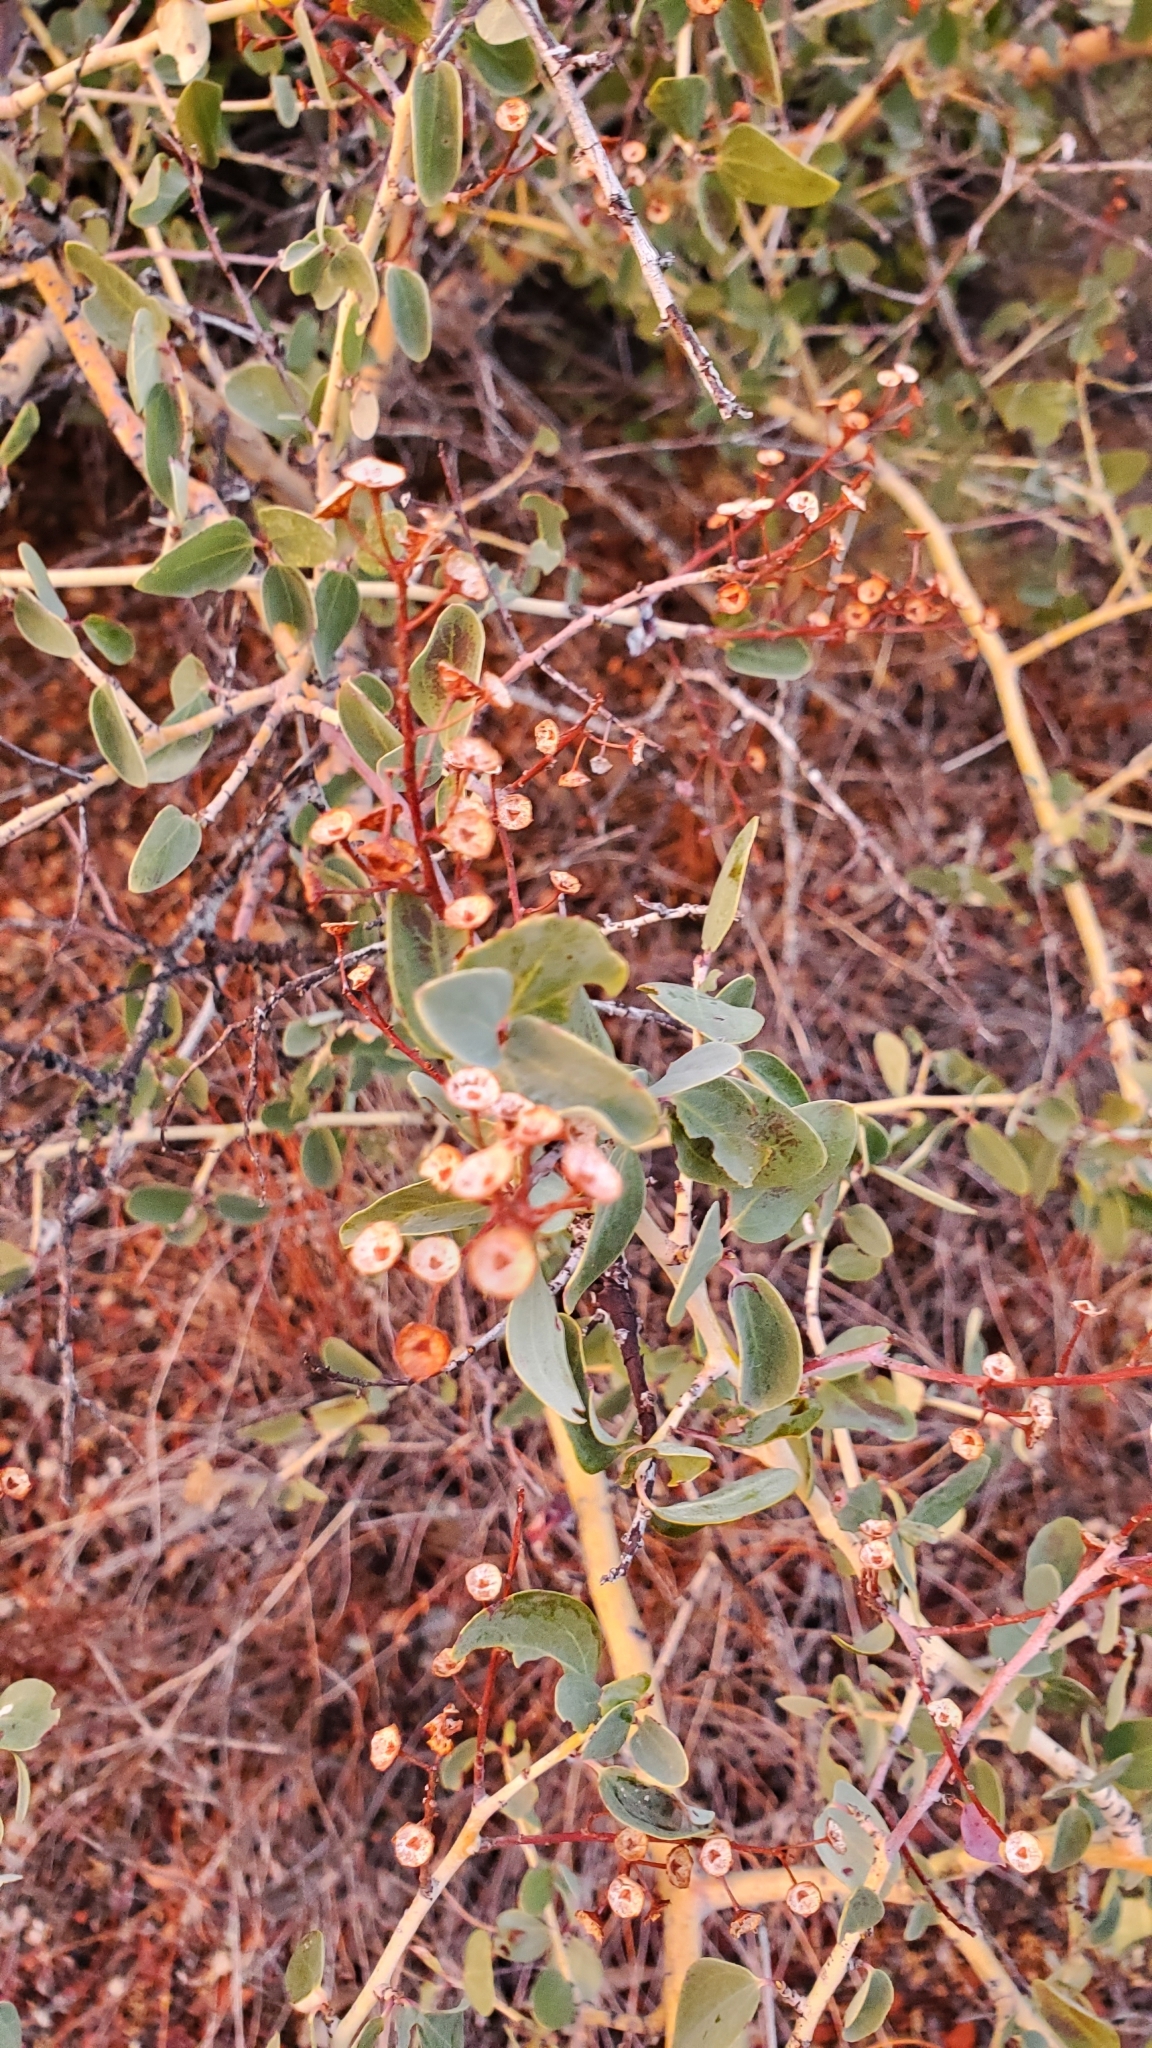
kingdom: Plantae
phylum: Tracheophyta
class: Magnoliopsida
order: Rosales
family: Rhamnaceae
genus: Ceanothus
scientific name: Ceanothus leucodermis
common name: Chaparral whitethorn
